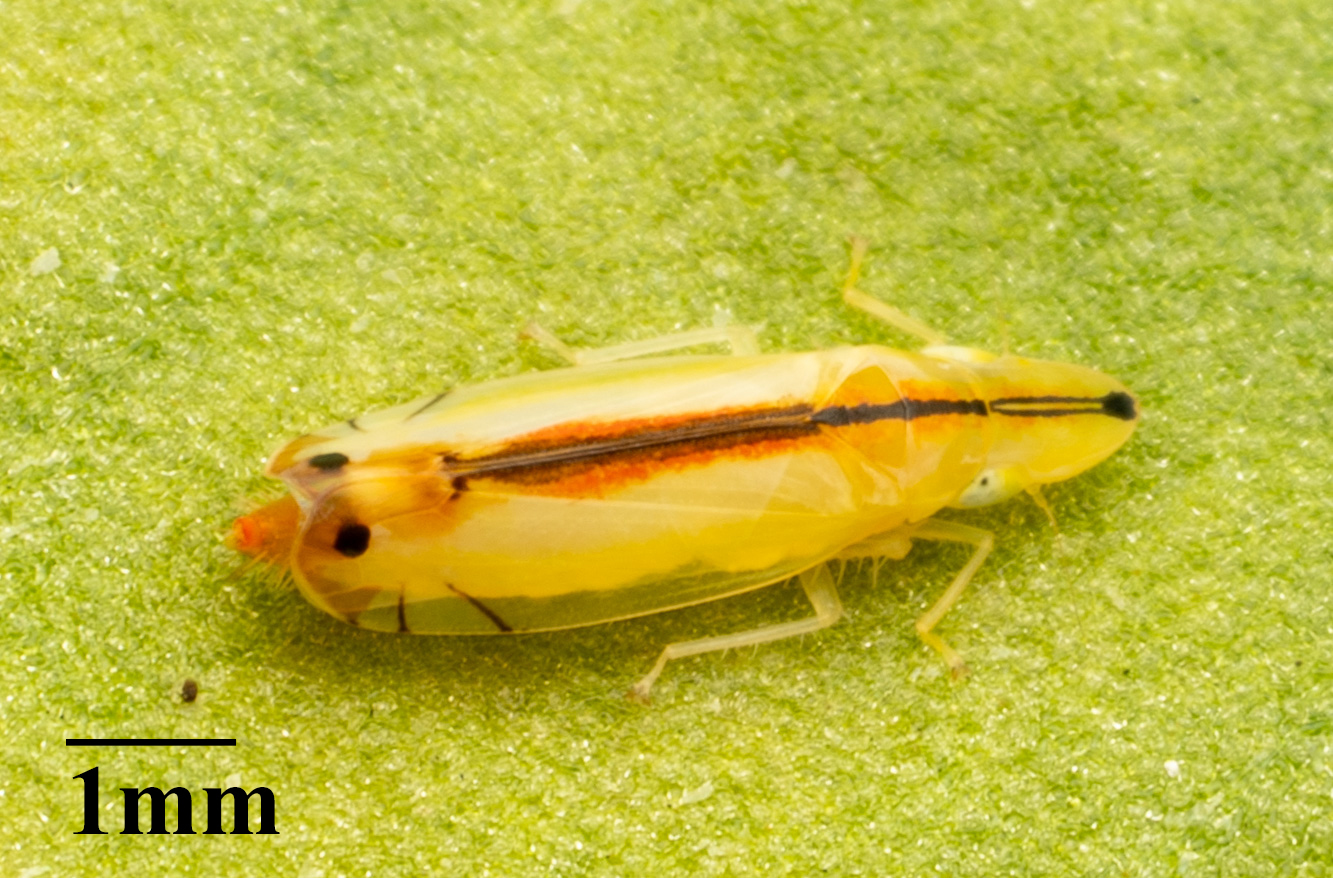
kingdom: Animalia
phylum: Arthropoda
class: Insecta
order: Hemiptera
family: Cicadellidae
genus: Sophonia
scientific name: Sophonia orientalis
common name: Two-spotted leafhopper
